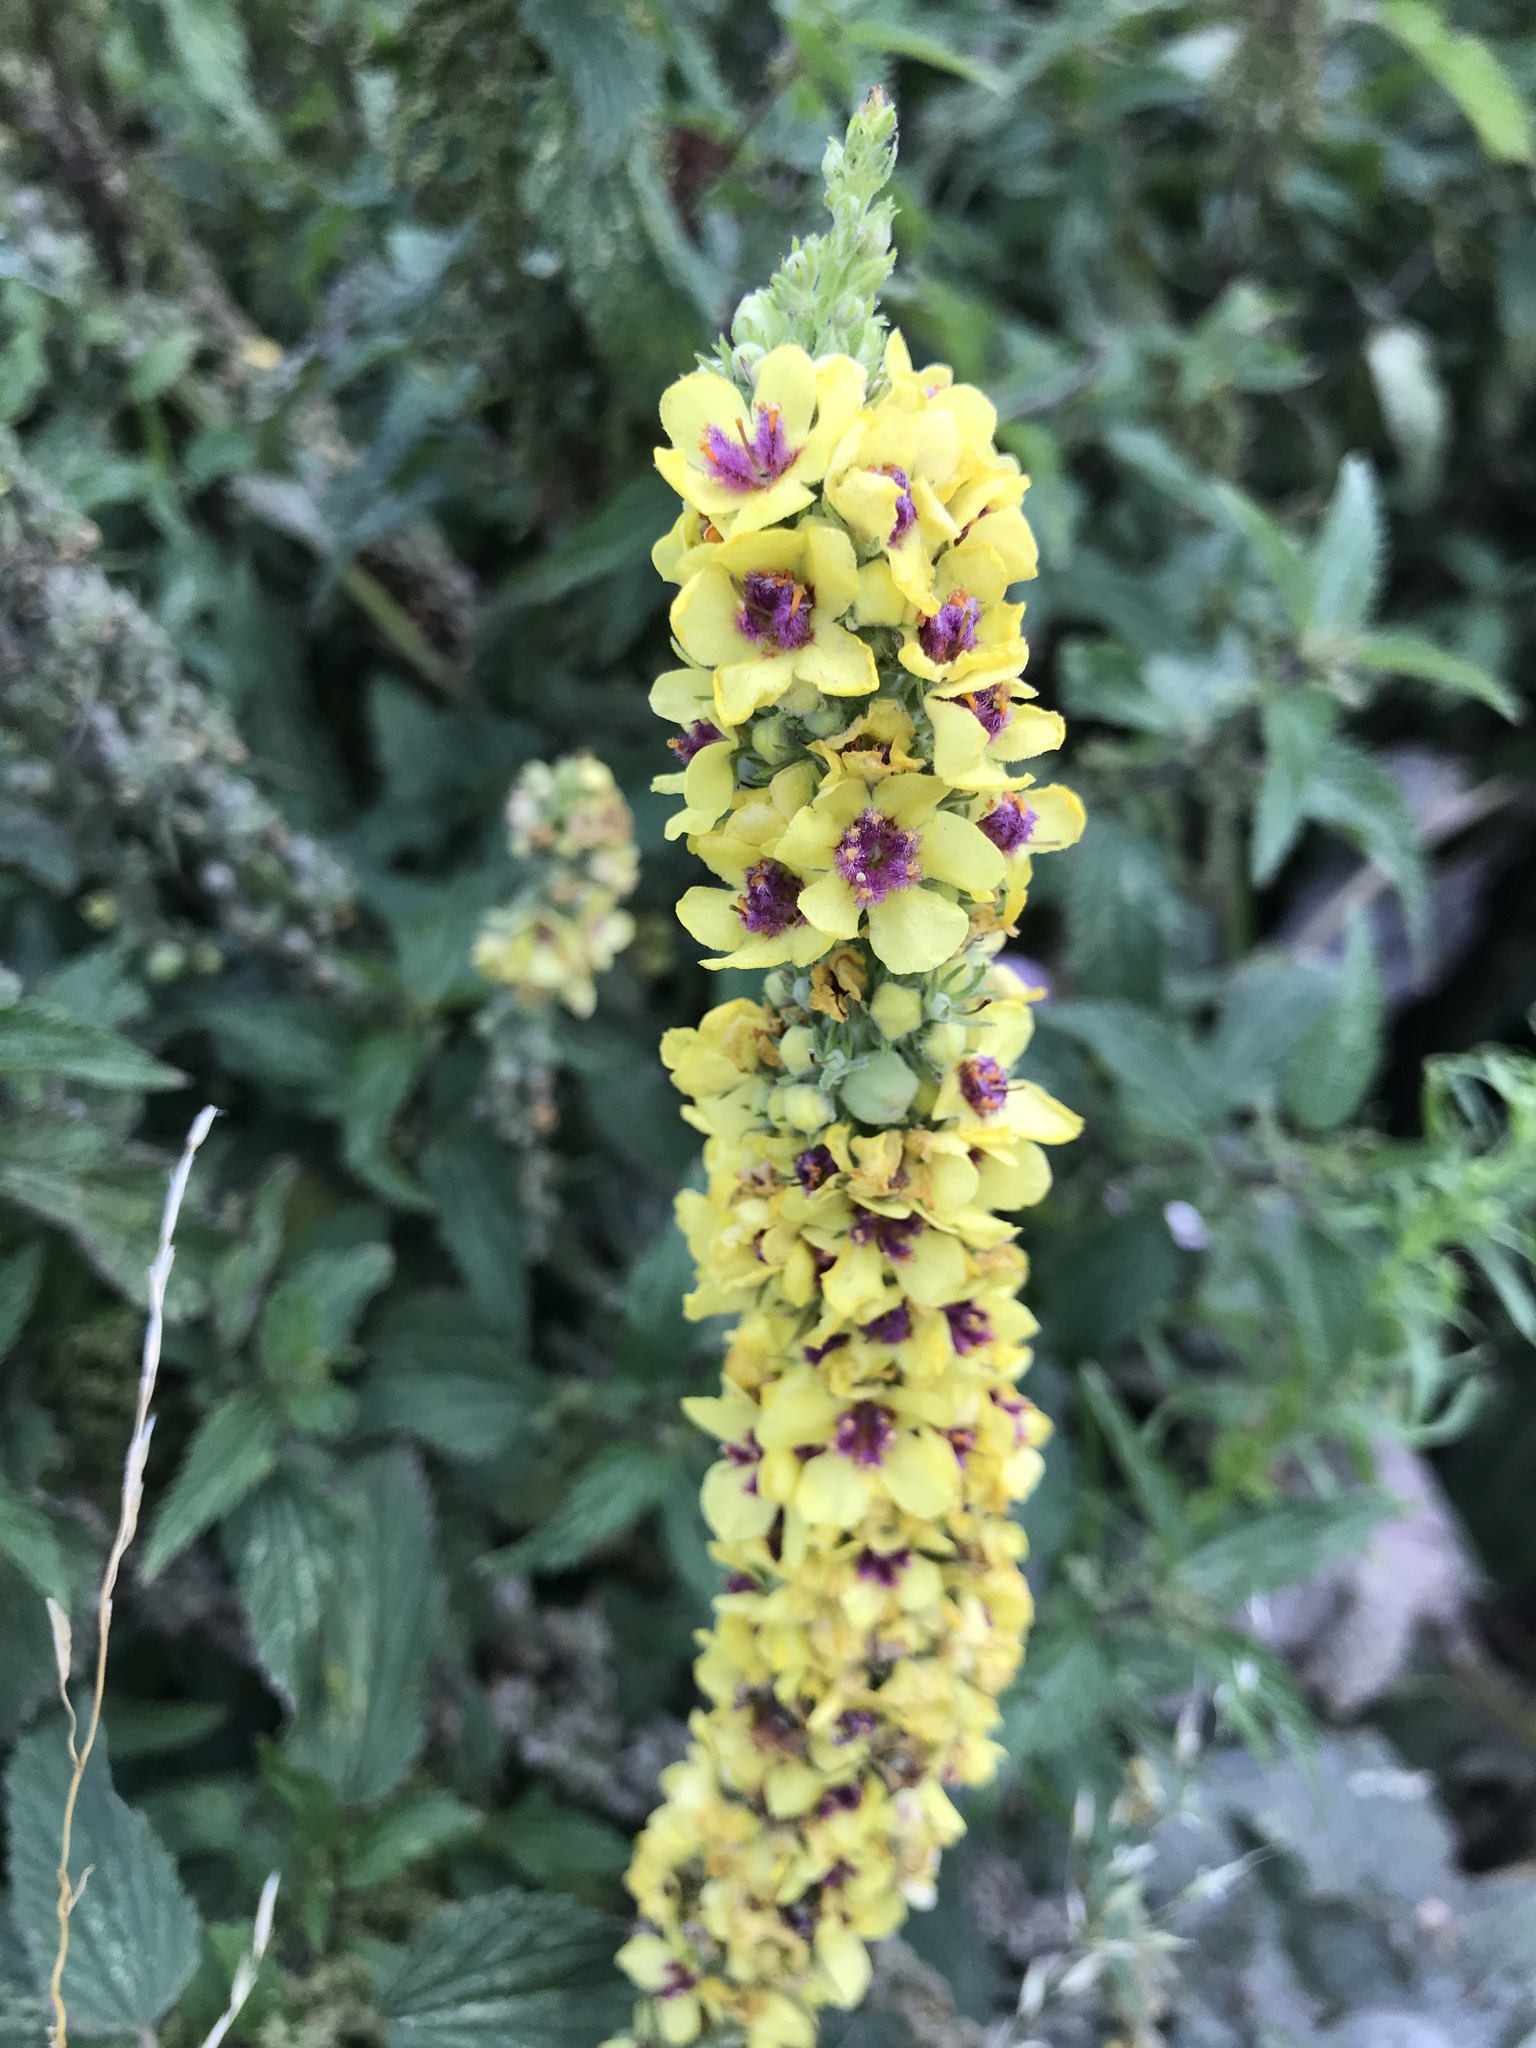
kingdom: Plantae
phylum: Tracheophyta
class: Magnoliopsida
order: Lamiales
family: Scrophulariaceae
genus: Verbascum
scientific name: Verbascum nigrum
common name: Dark mullein
